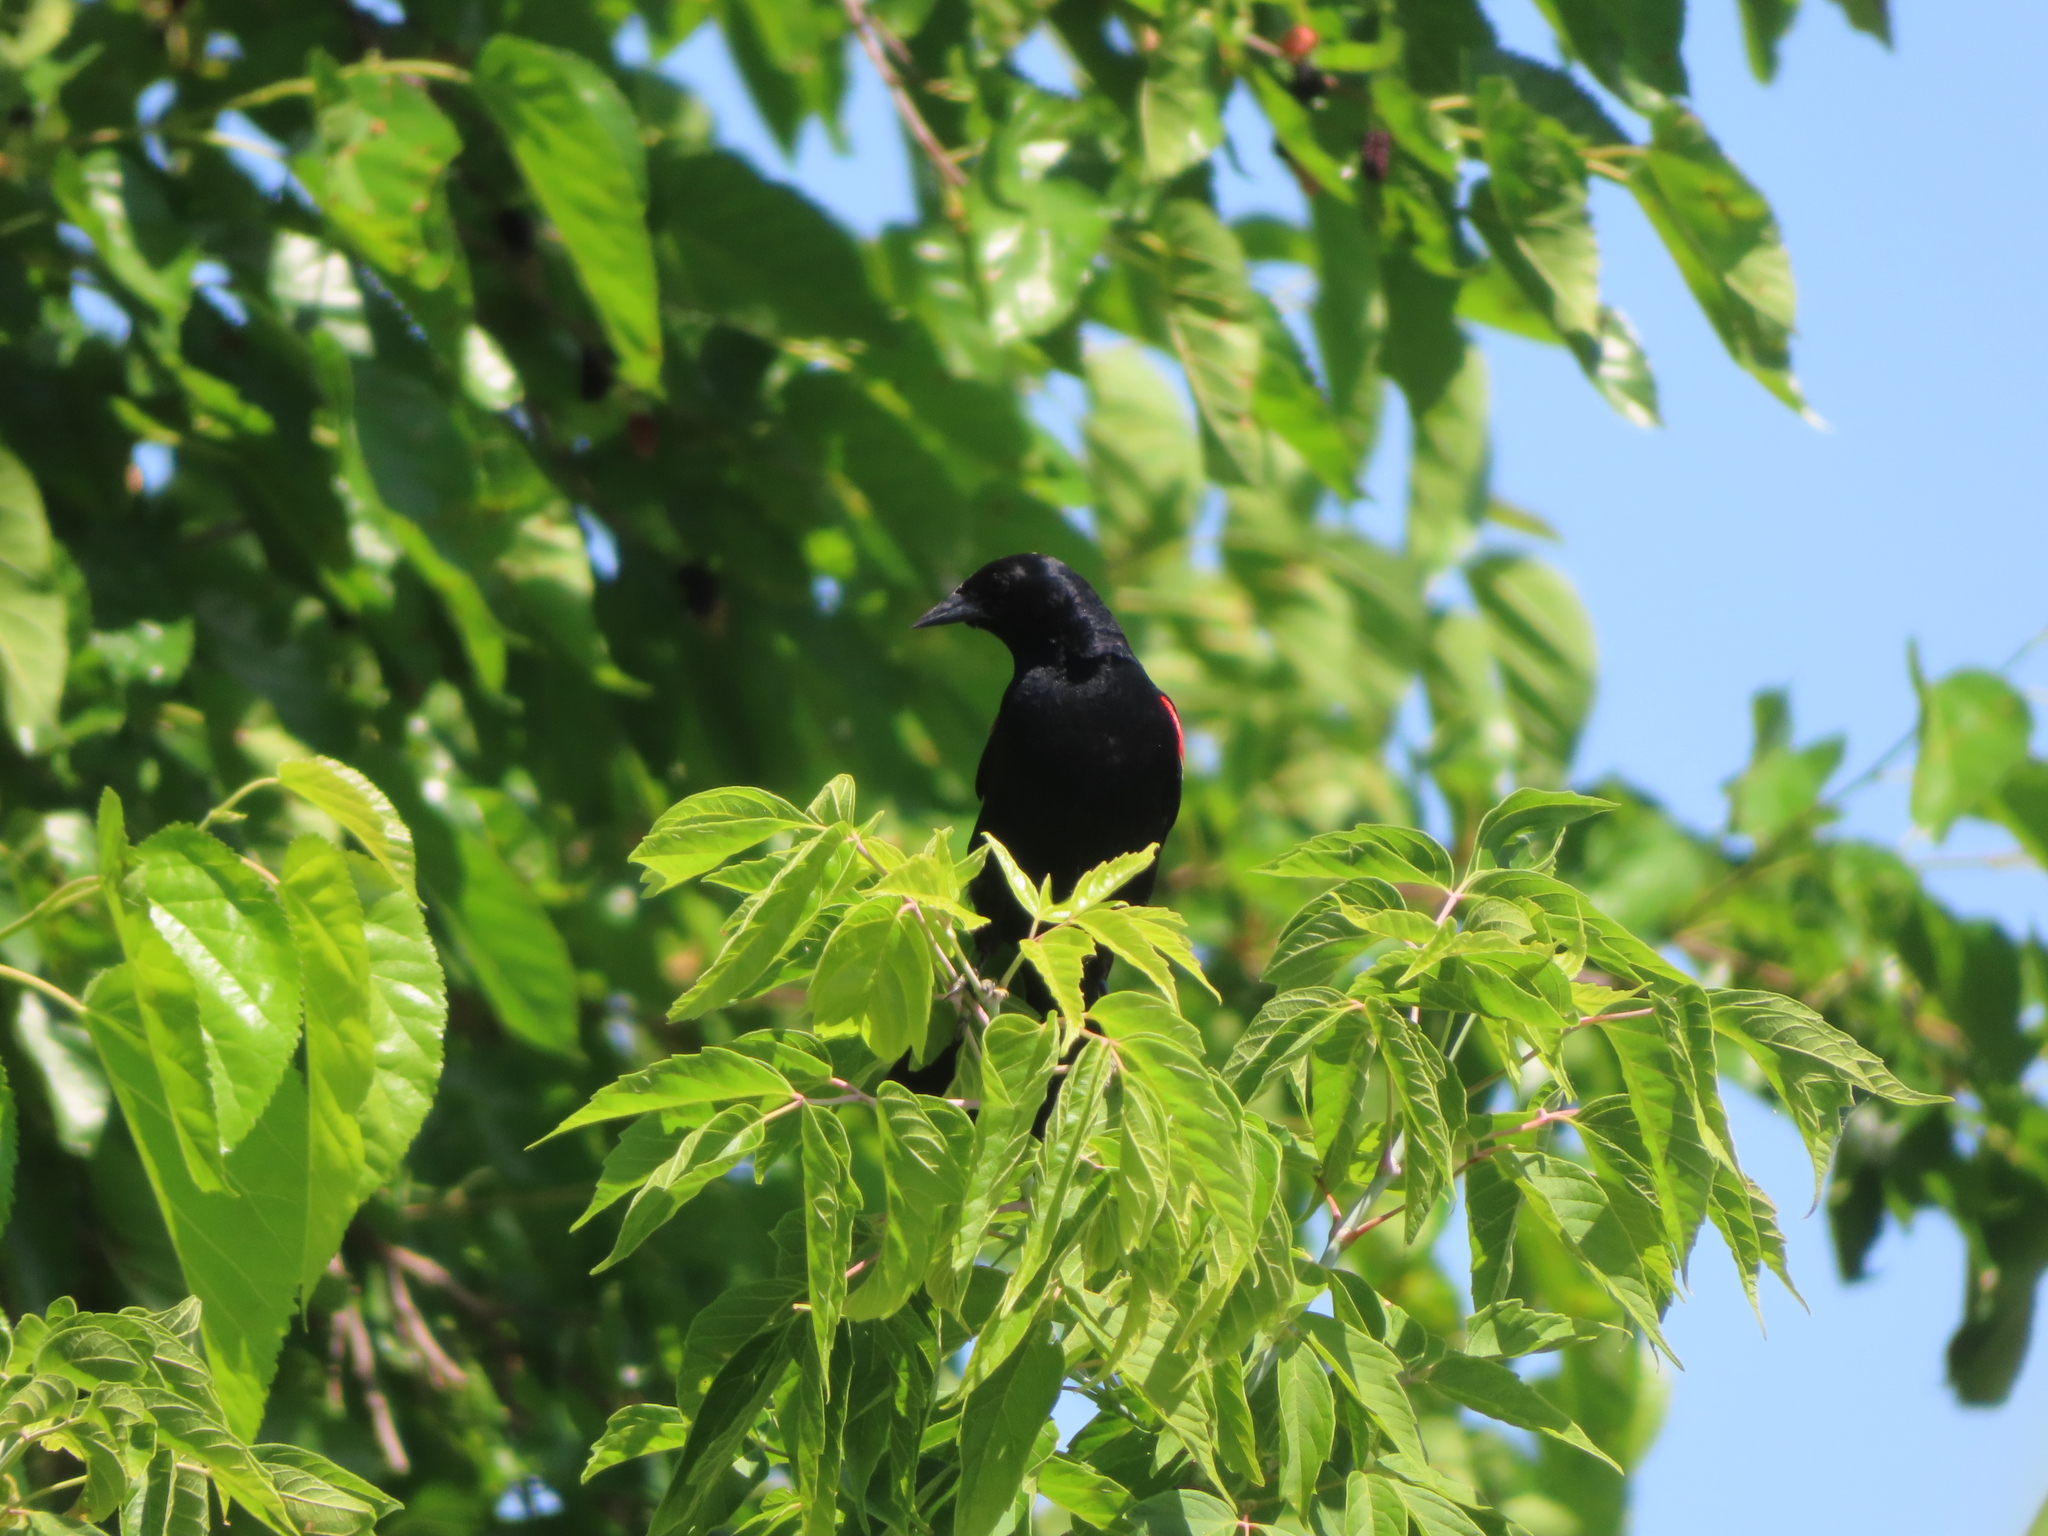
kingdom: Animalia
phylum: Chordata
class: Aves
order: Passeriformes
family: Icteridae
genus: Agelaius
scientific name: Agelaius phoeniceus
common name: Red-winged blackbird
